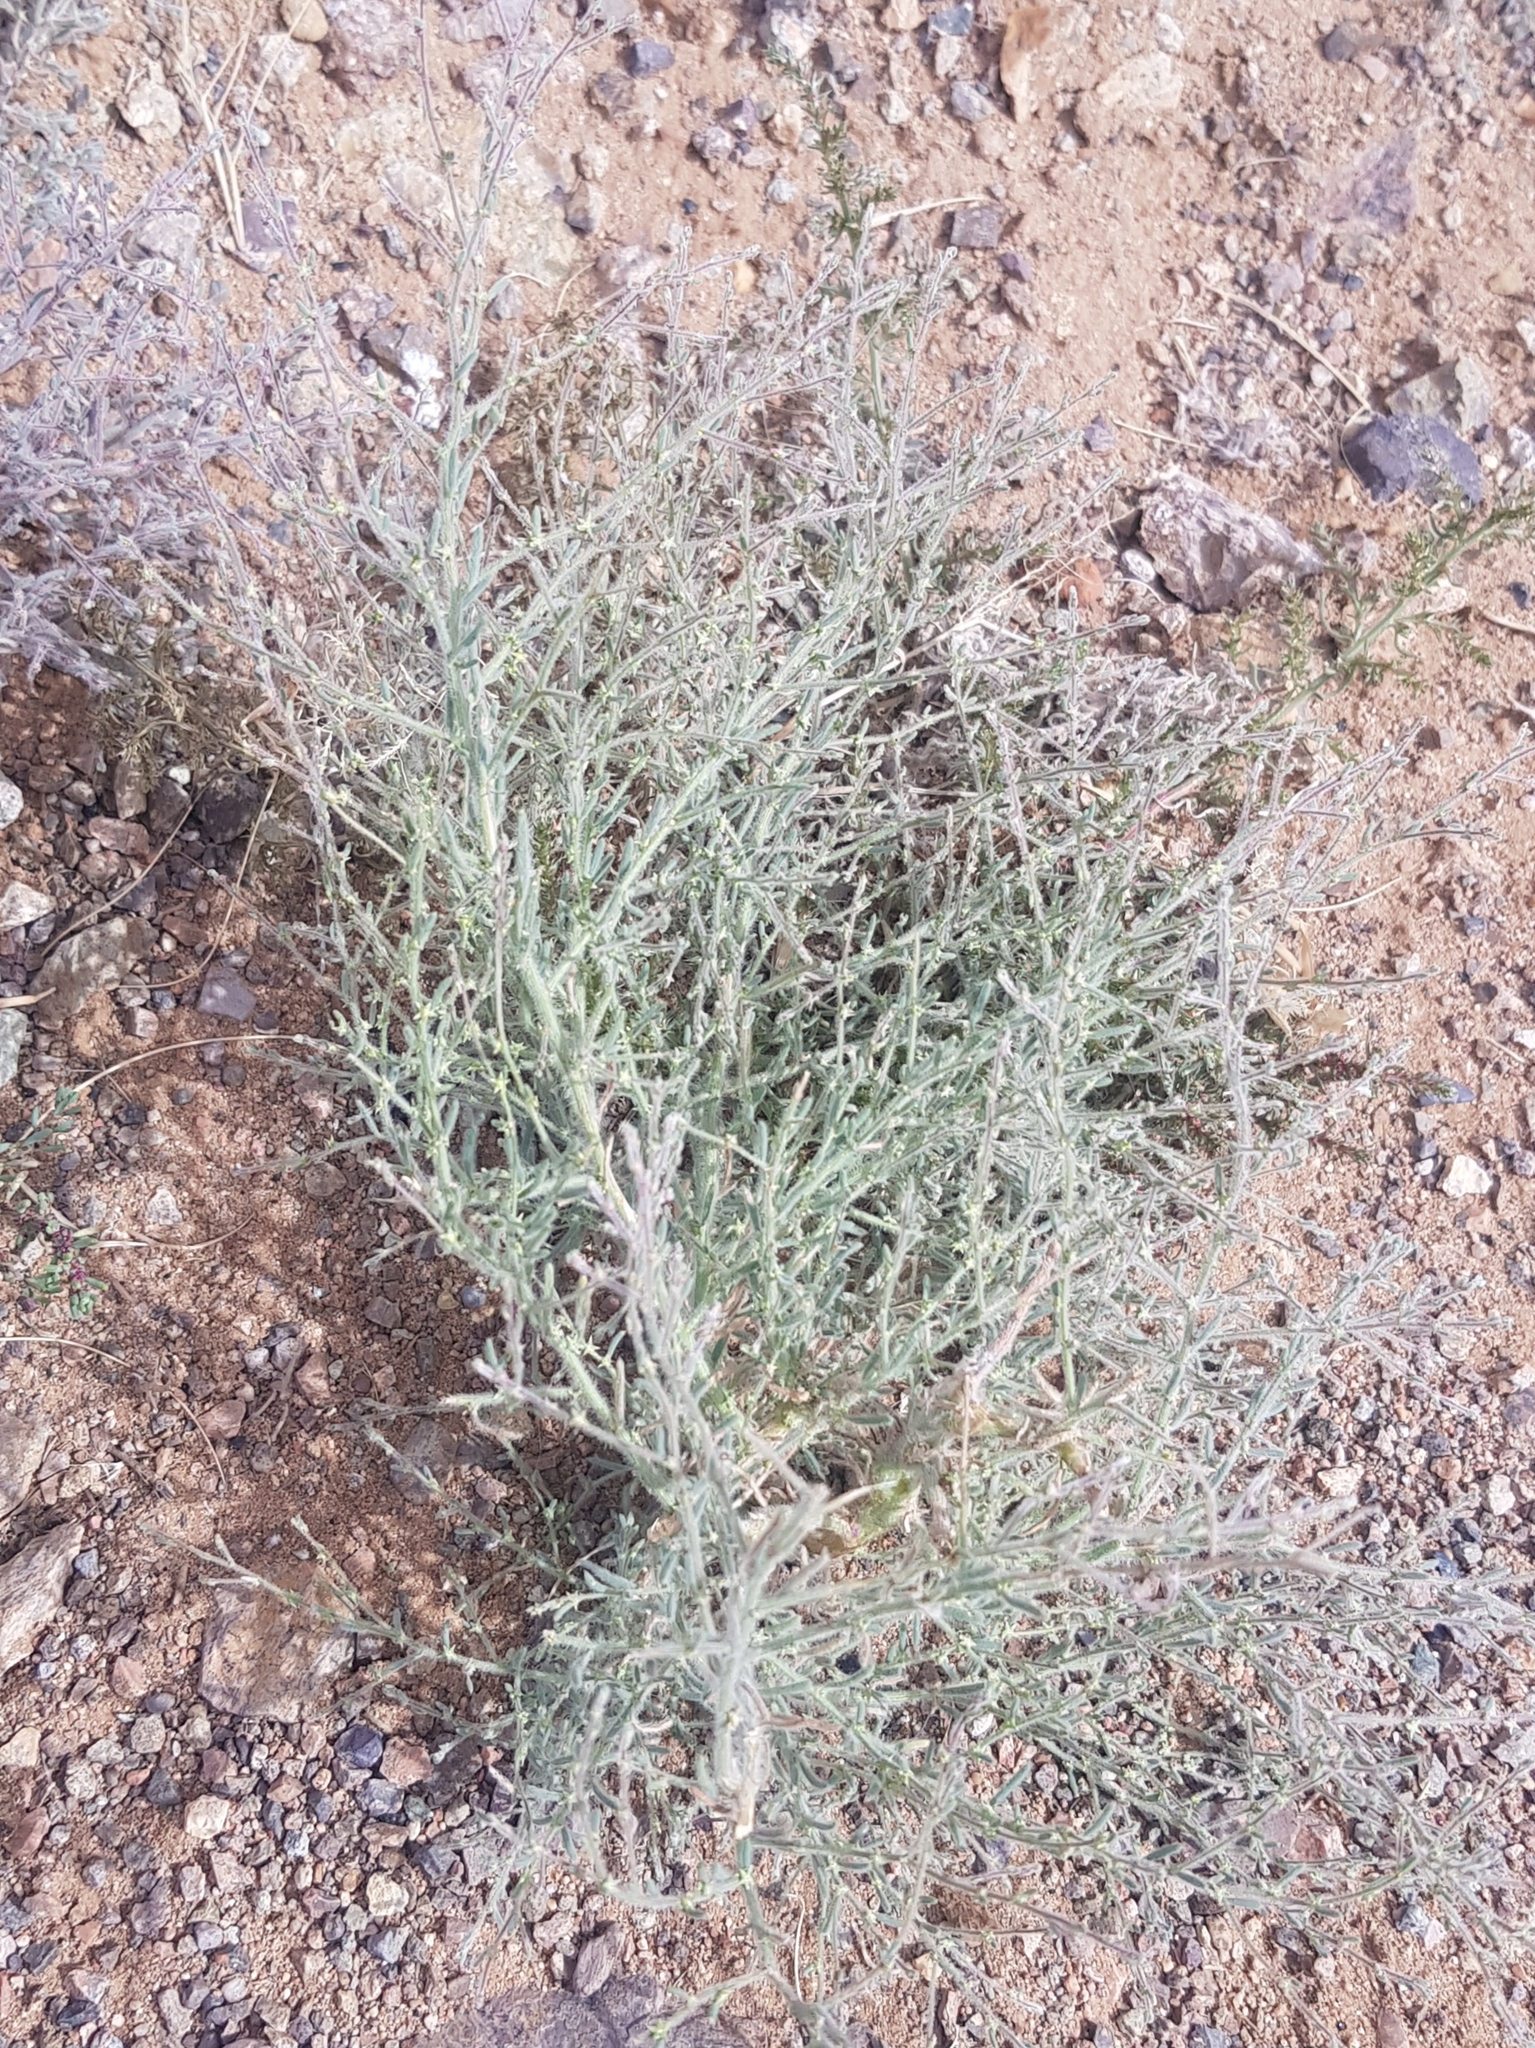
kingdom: Plantae
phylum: Tracheophyta
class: Magnoliopsida
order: Caryophyllales
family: Amaranthaceae
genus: Grubovia
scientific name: Grubovia dasyphylla
